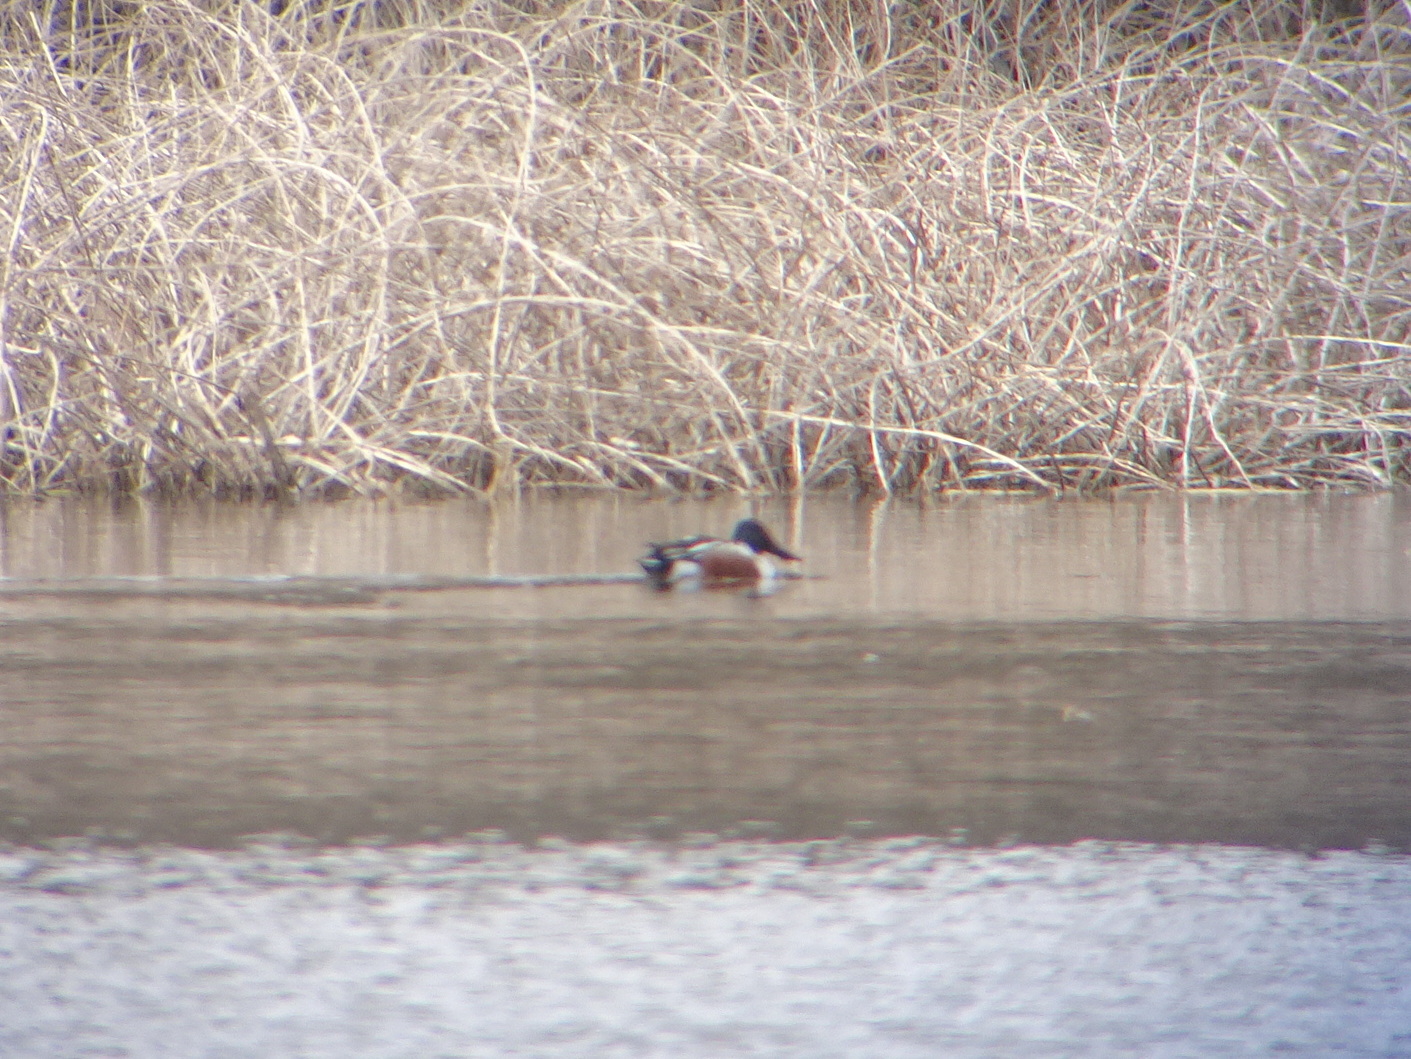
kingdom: Animalia
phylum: Chordata
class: Aves
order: Anseriformes
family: Anatidae
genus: Spatula
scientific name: Spatula clypeata
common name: Northern shoveler
